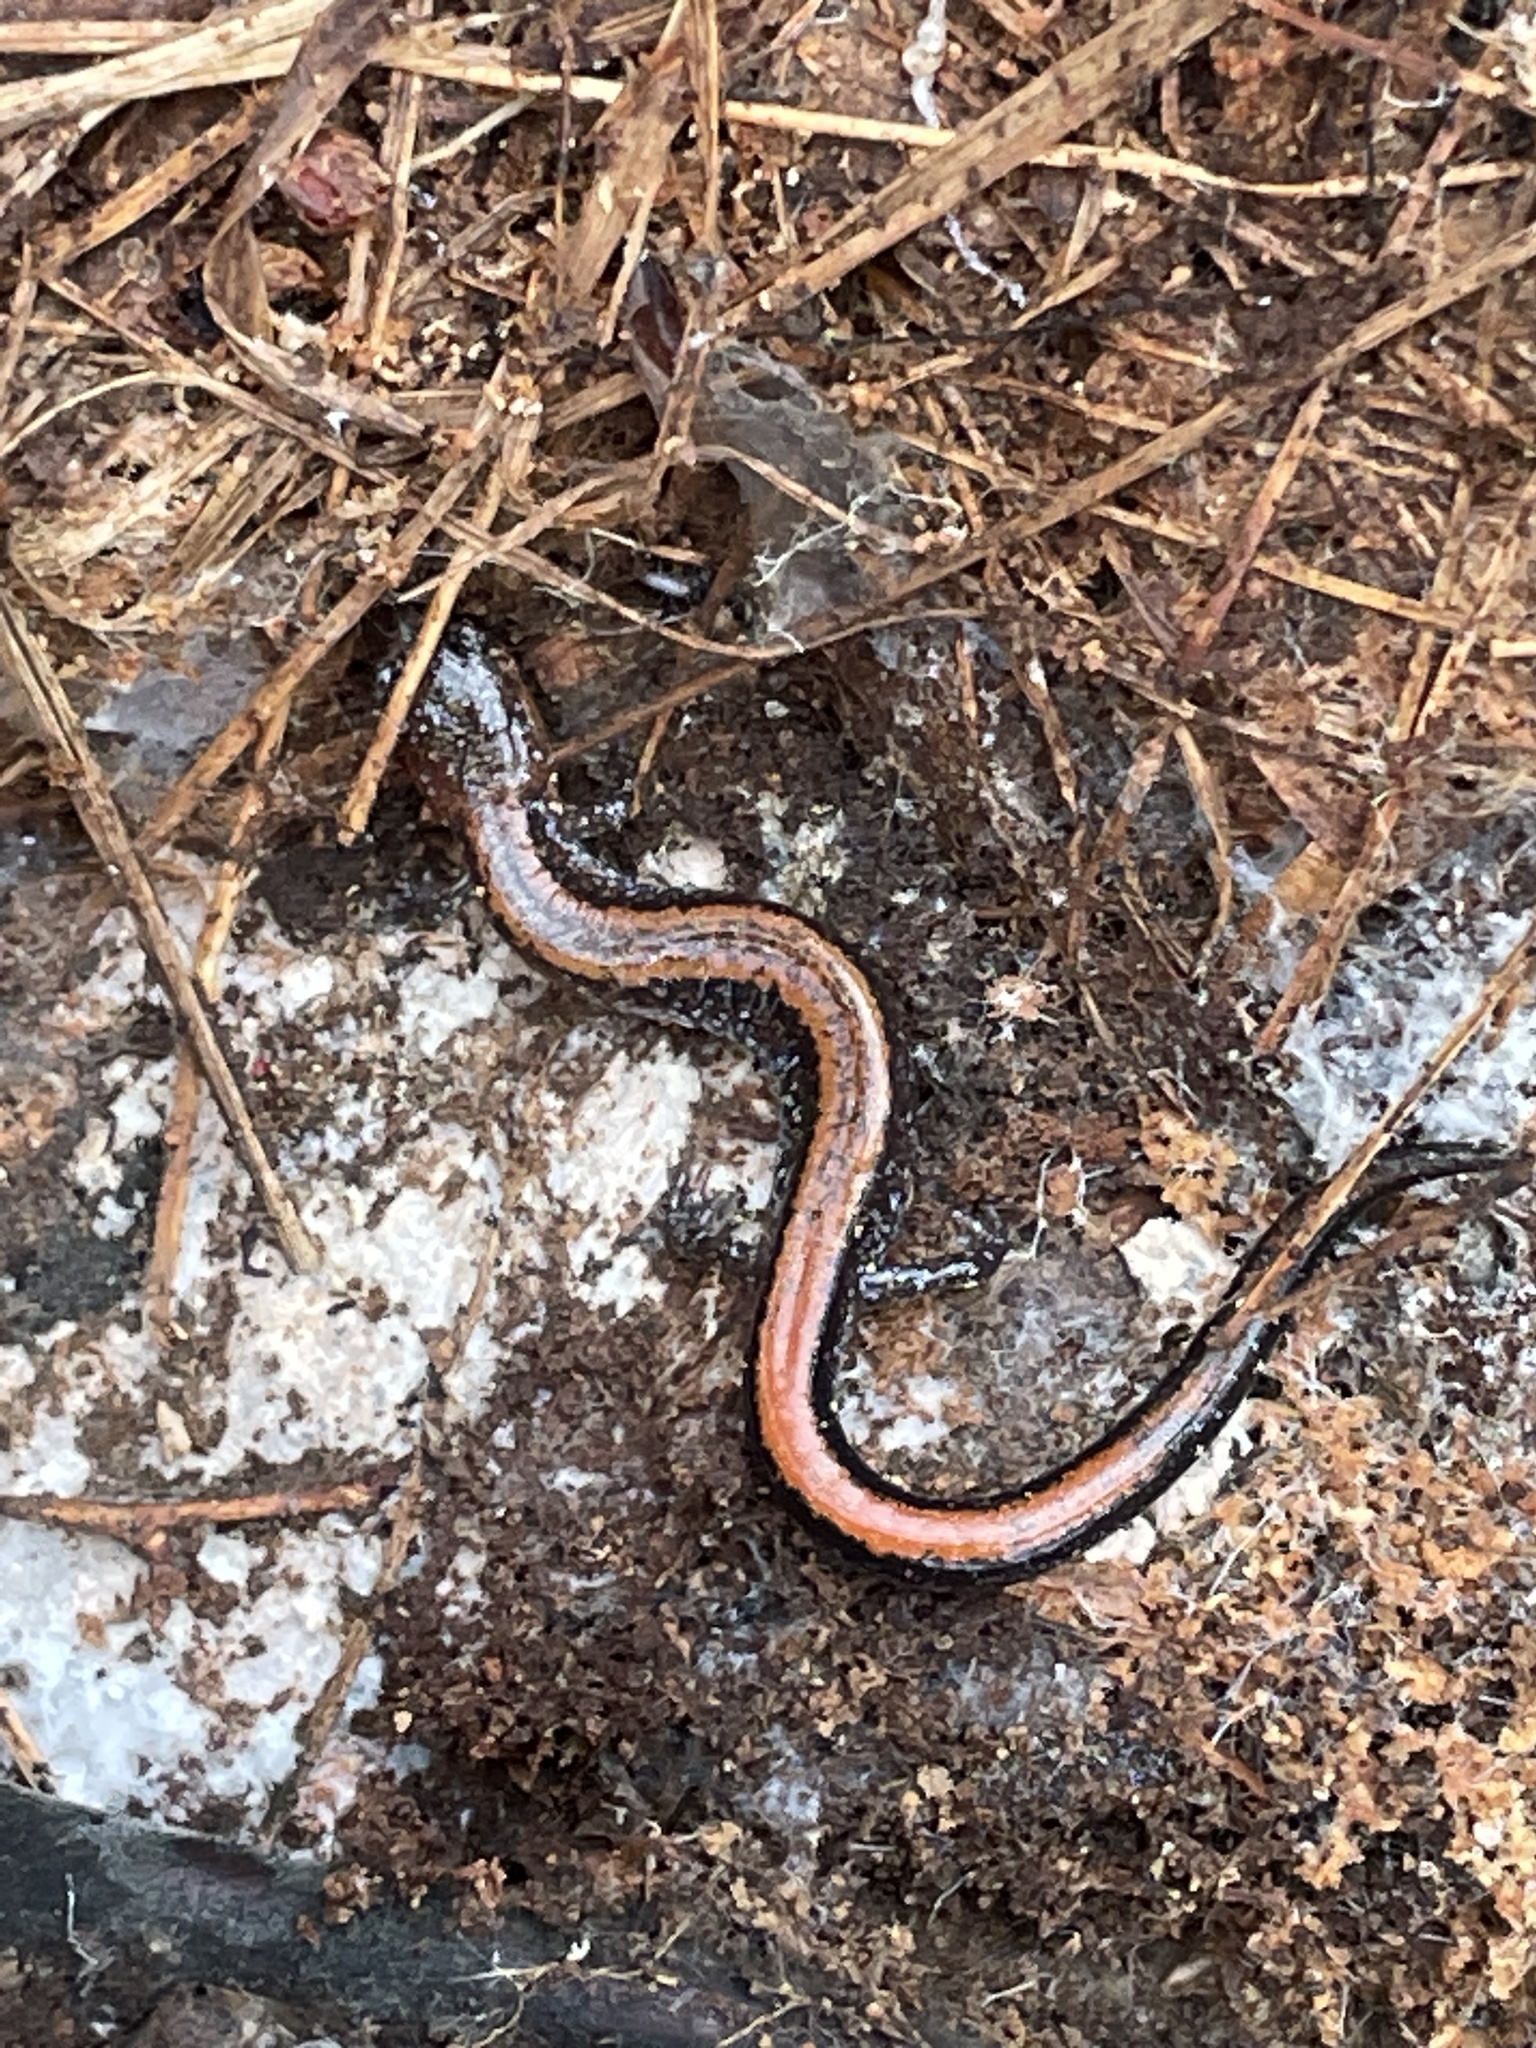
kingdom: Animalia
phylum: Chordata
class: Amphibia
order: Caudata
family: Plethodontidae
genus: Plethodon
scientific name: Plethodon cinereus
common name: Redback salamander
